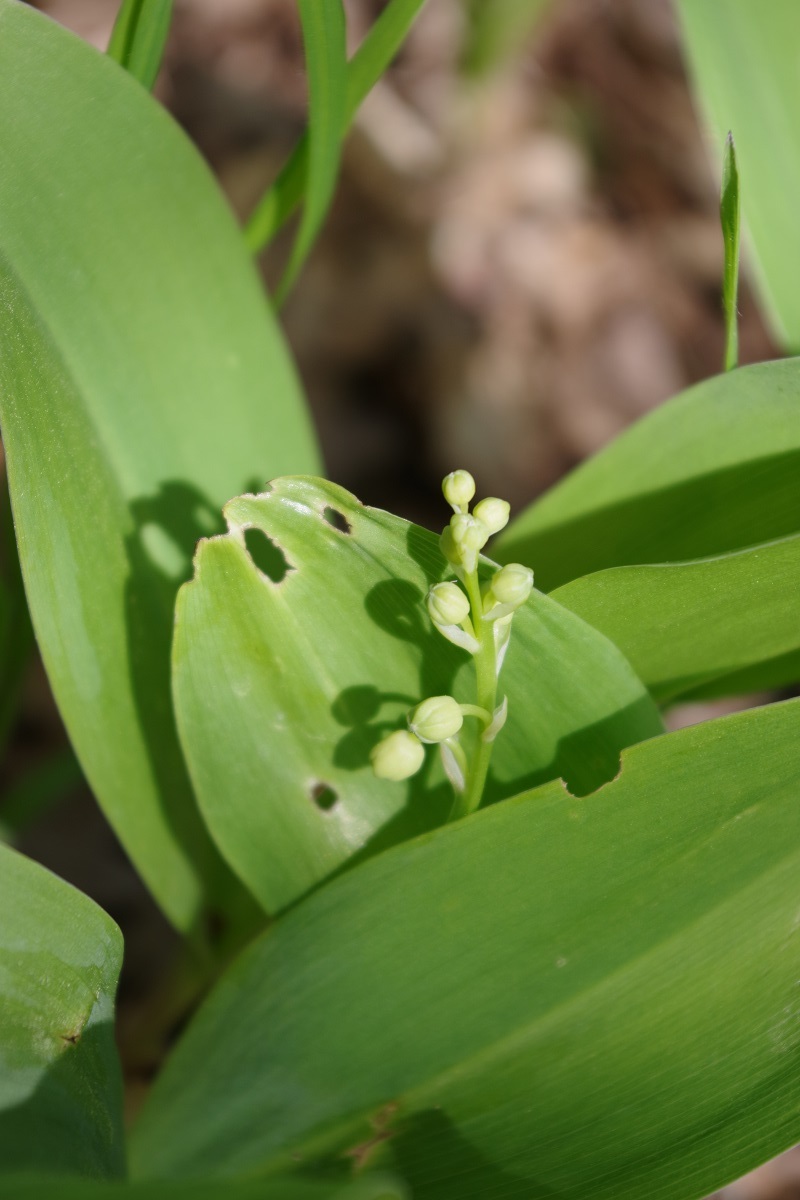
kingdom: Plantae
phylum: Tracheophyta
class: Liliopsida
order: Asparagales
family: Asparagaceae
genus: Convallaria
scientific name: Convallaria majalis
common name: Lily-of-the-valley
